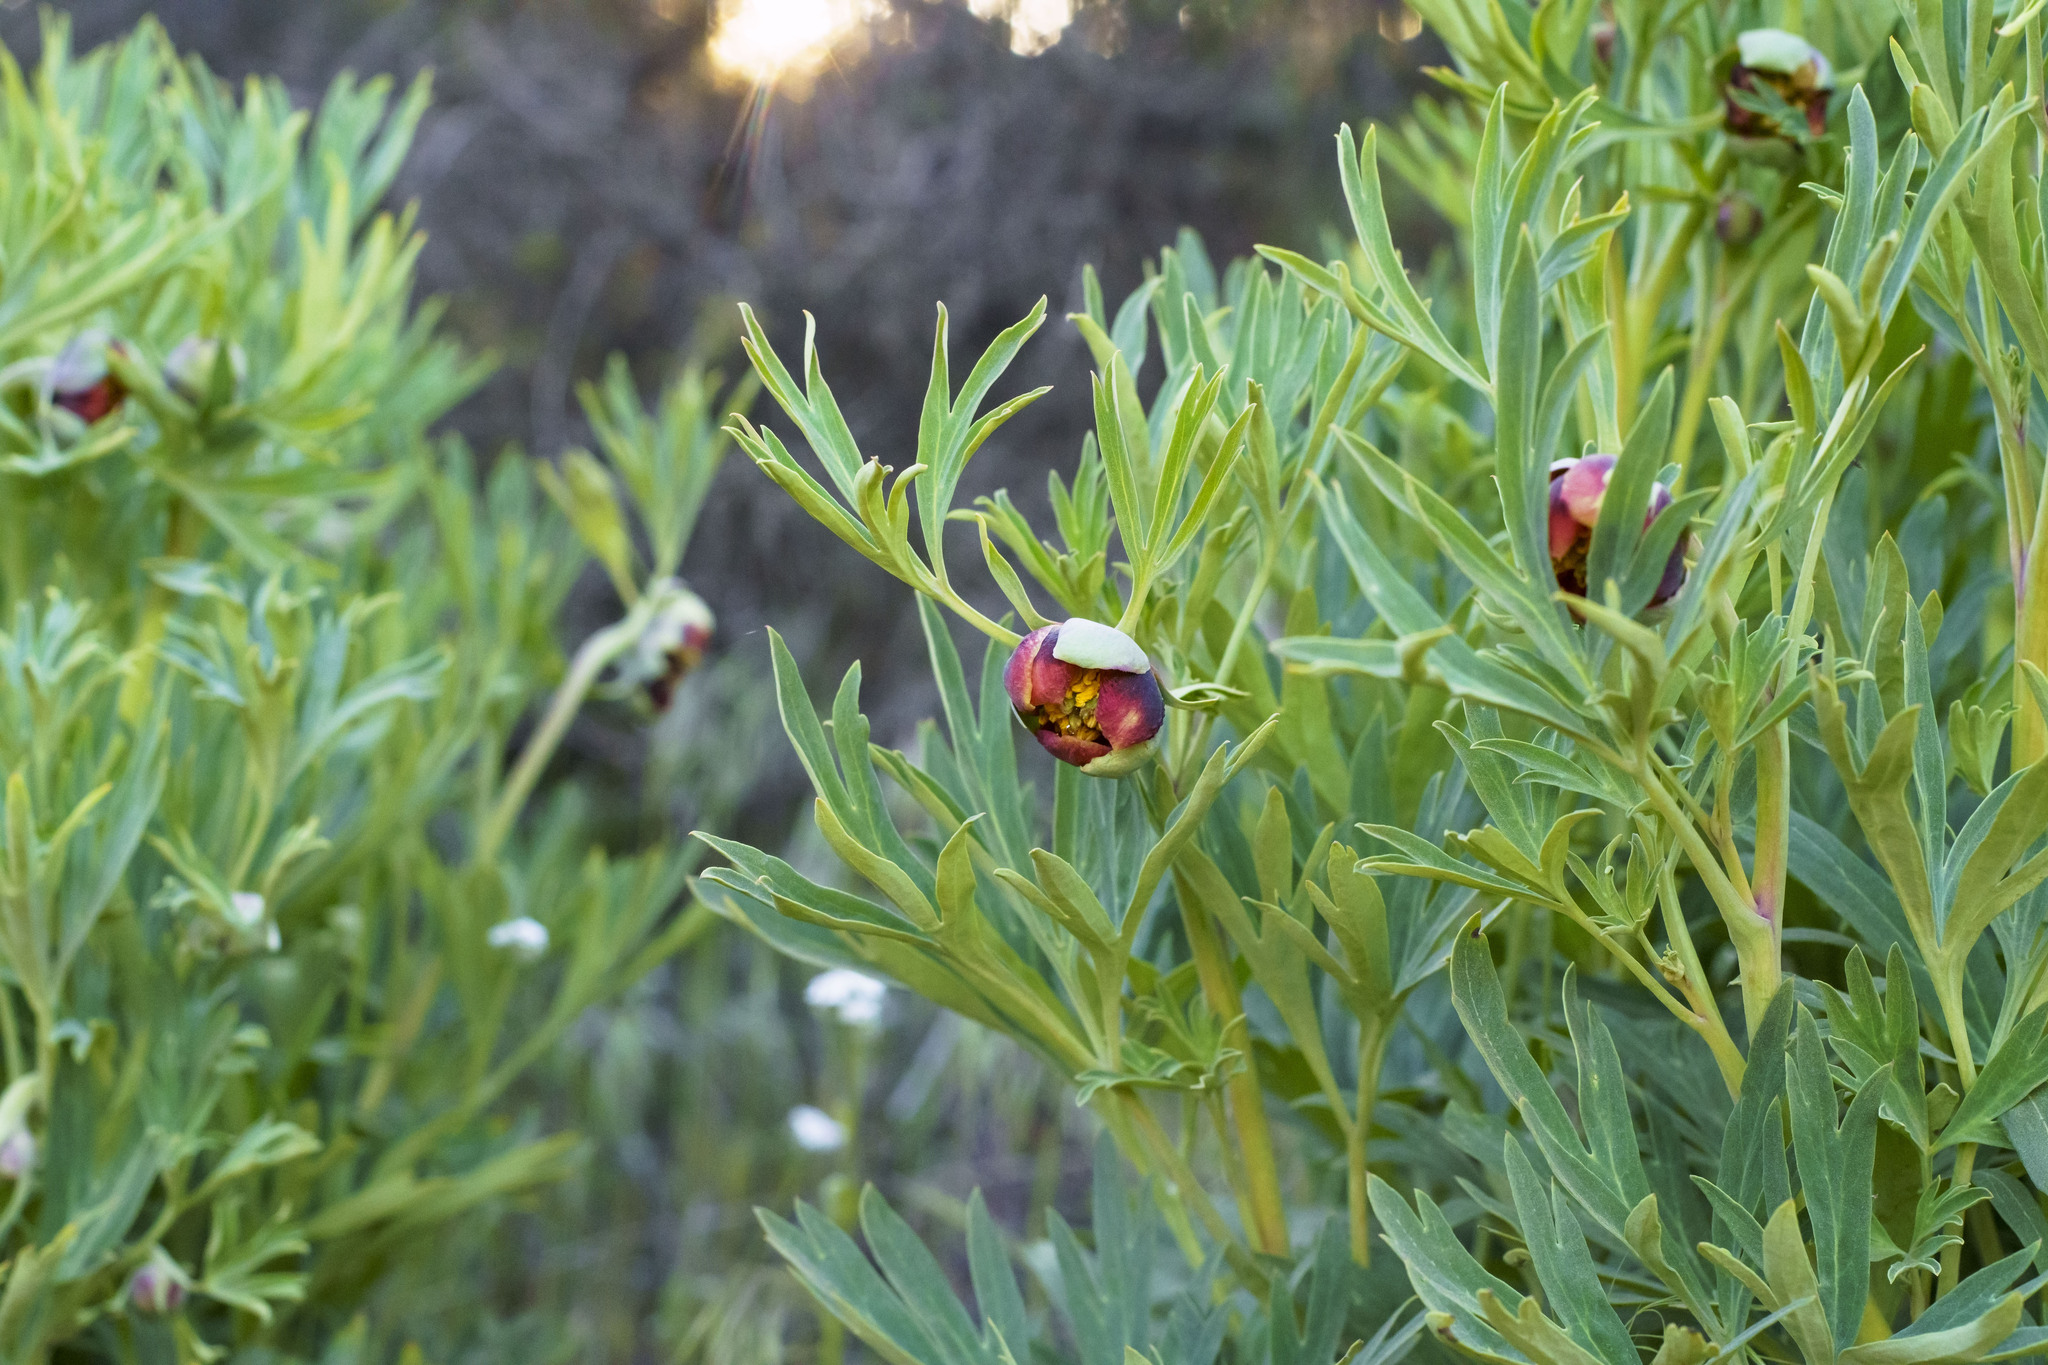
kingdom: Plantae
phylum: Tracheophyta
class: Magnoliopsida
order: Saxifragales
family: Paeoniaceae
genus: Paeonia
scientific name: Paeonia californica
